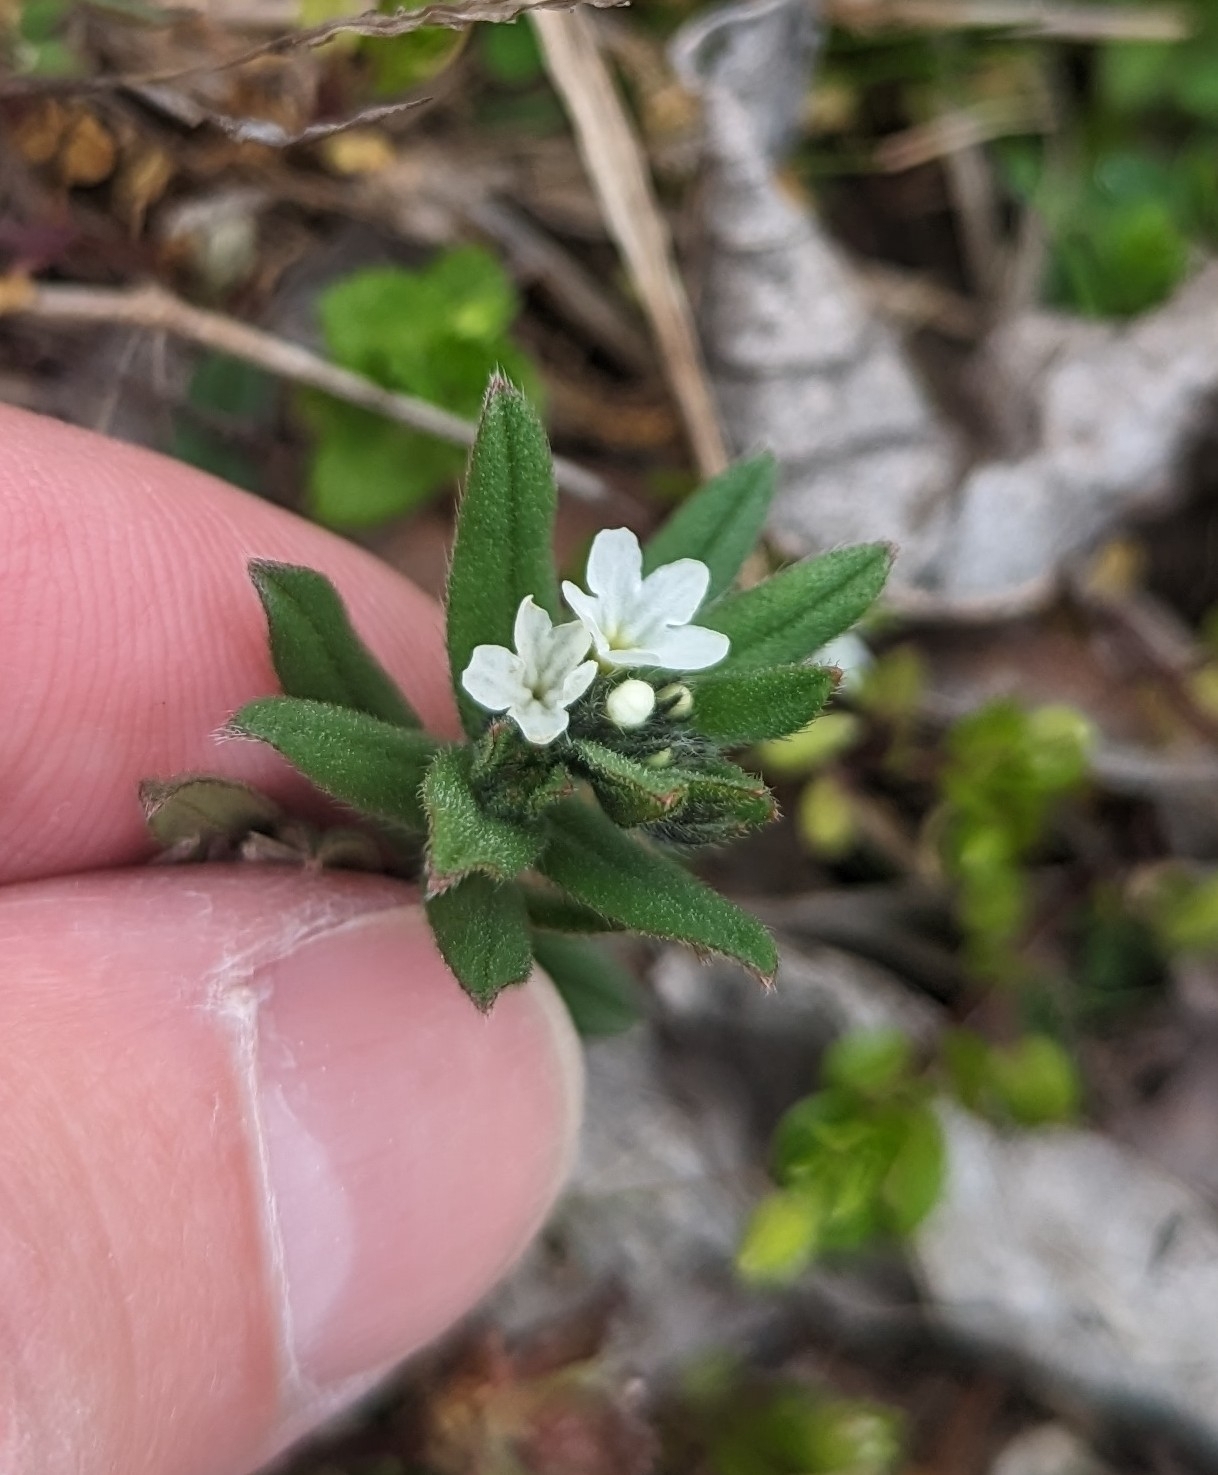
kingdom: Plantae
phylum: Tracheophyta
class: Magnoliopsida
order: Boraginales
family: Boraginaceae
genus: Buglossoides
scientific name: Buglossoides arvensis
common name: Corn gromwell
